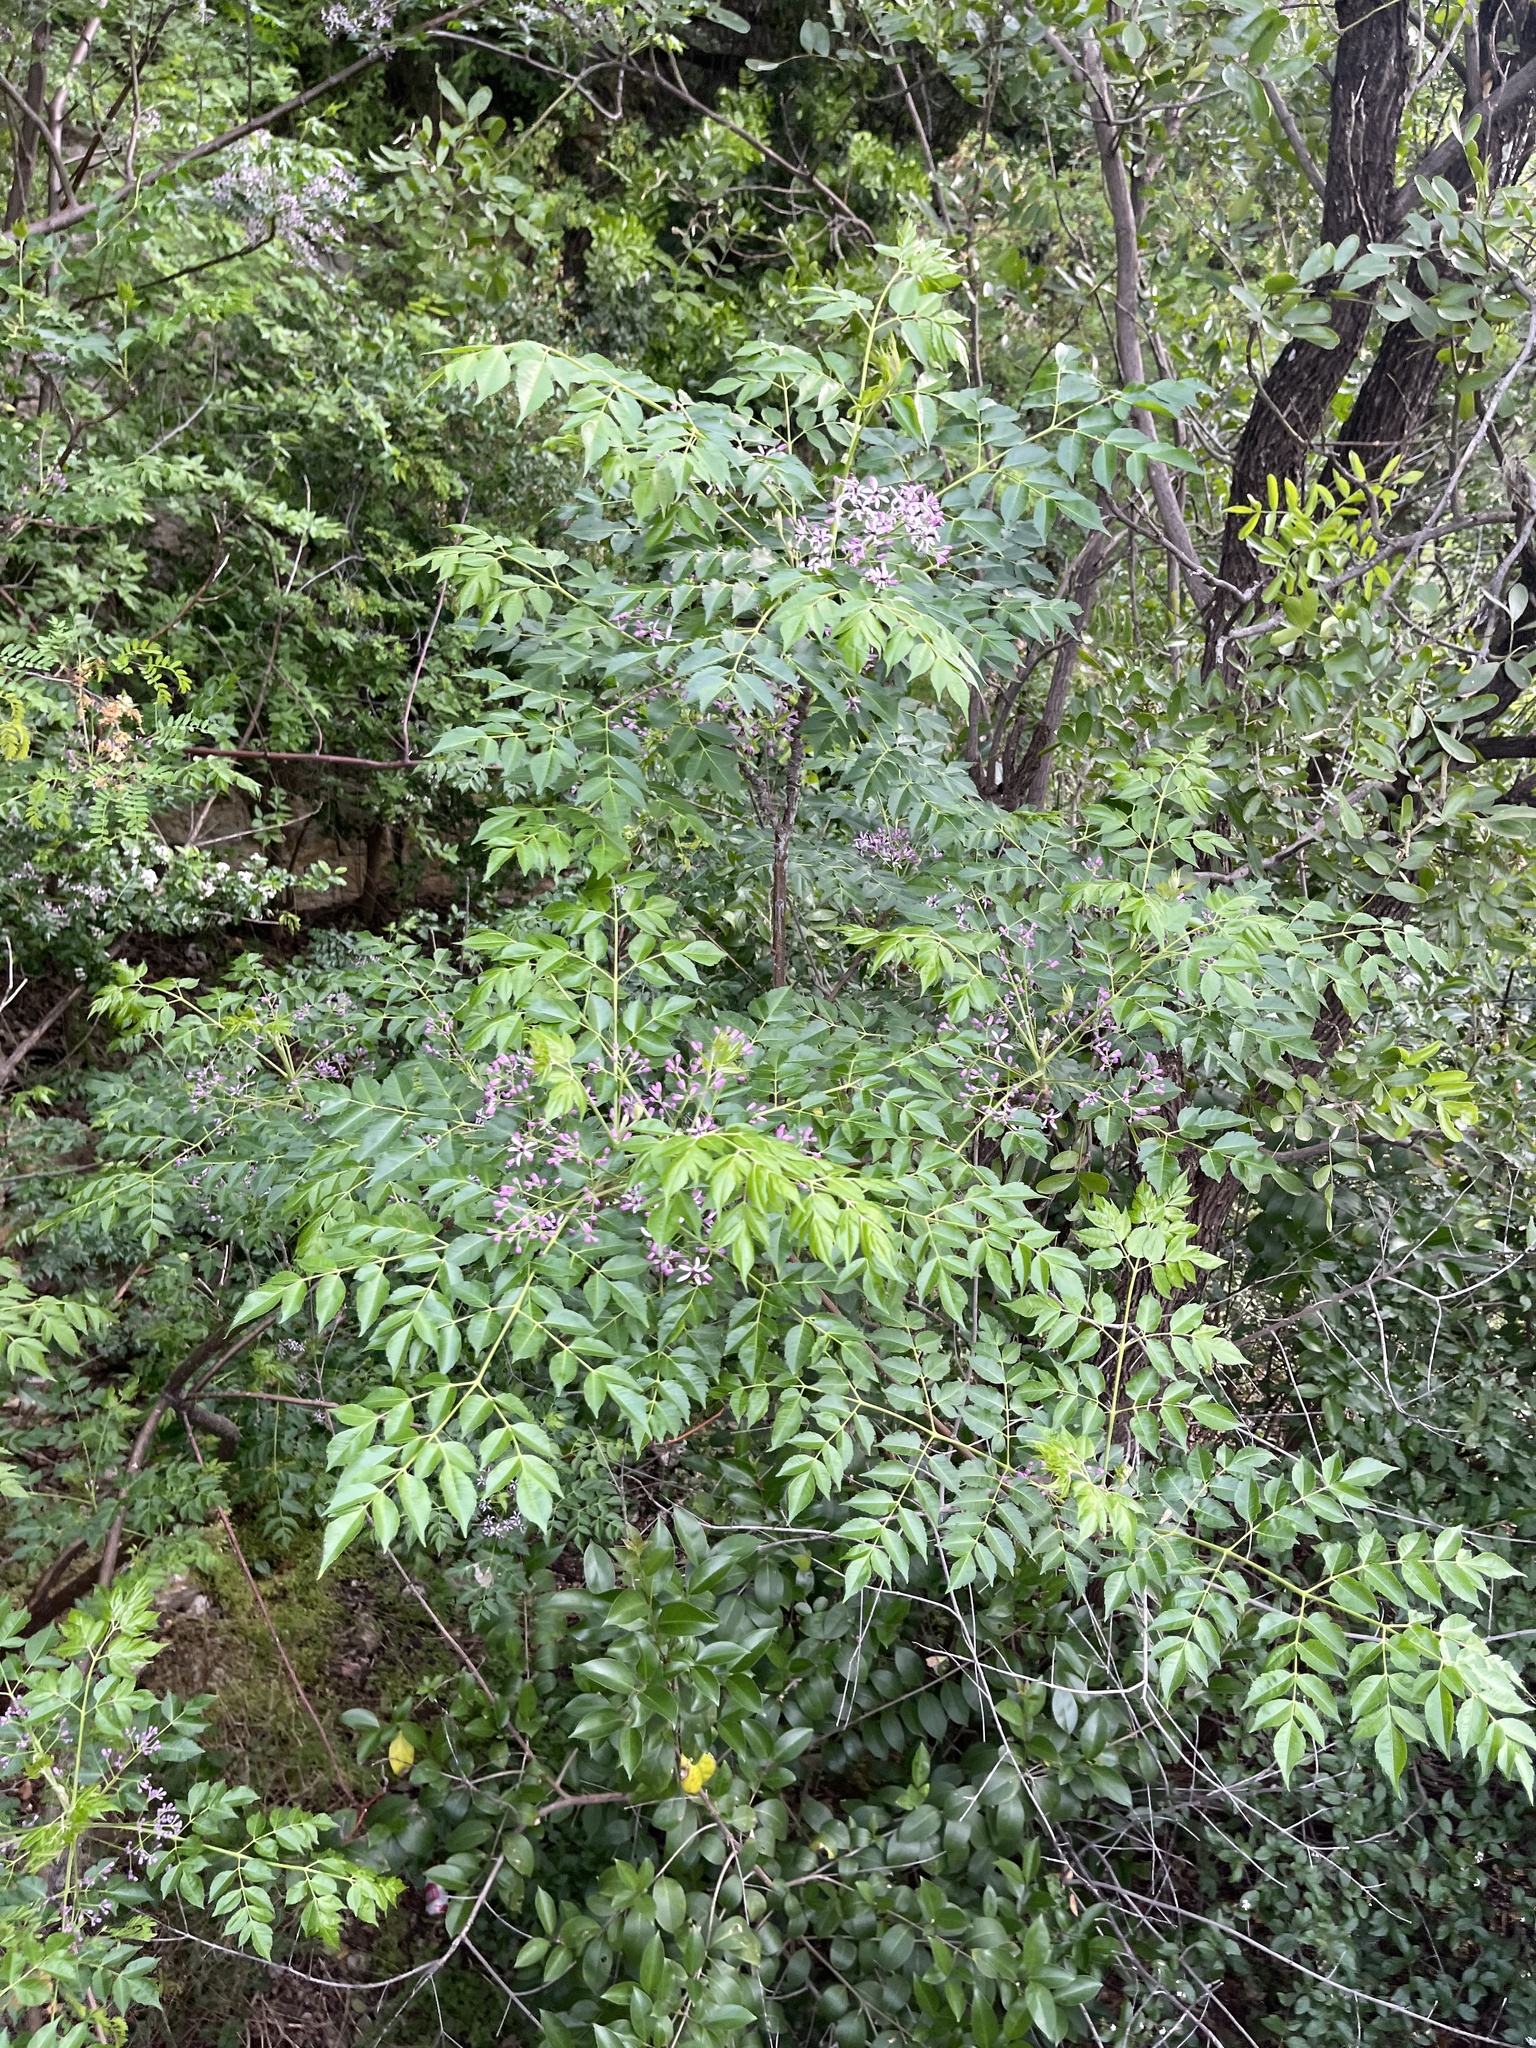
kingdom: Plantae
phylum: Tracheophyta
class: Magnoliopsida
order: Sapindales
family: Meliaceae
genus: Melia
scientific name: Melia azedarach
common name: Chinaberrytree
